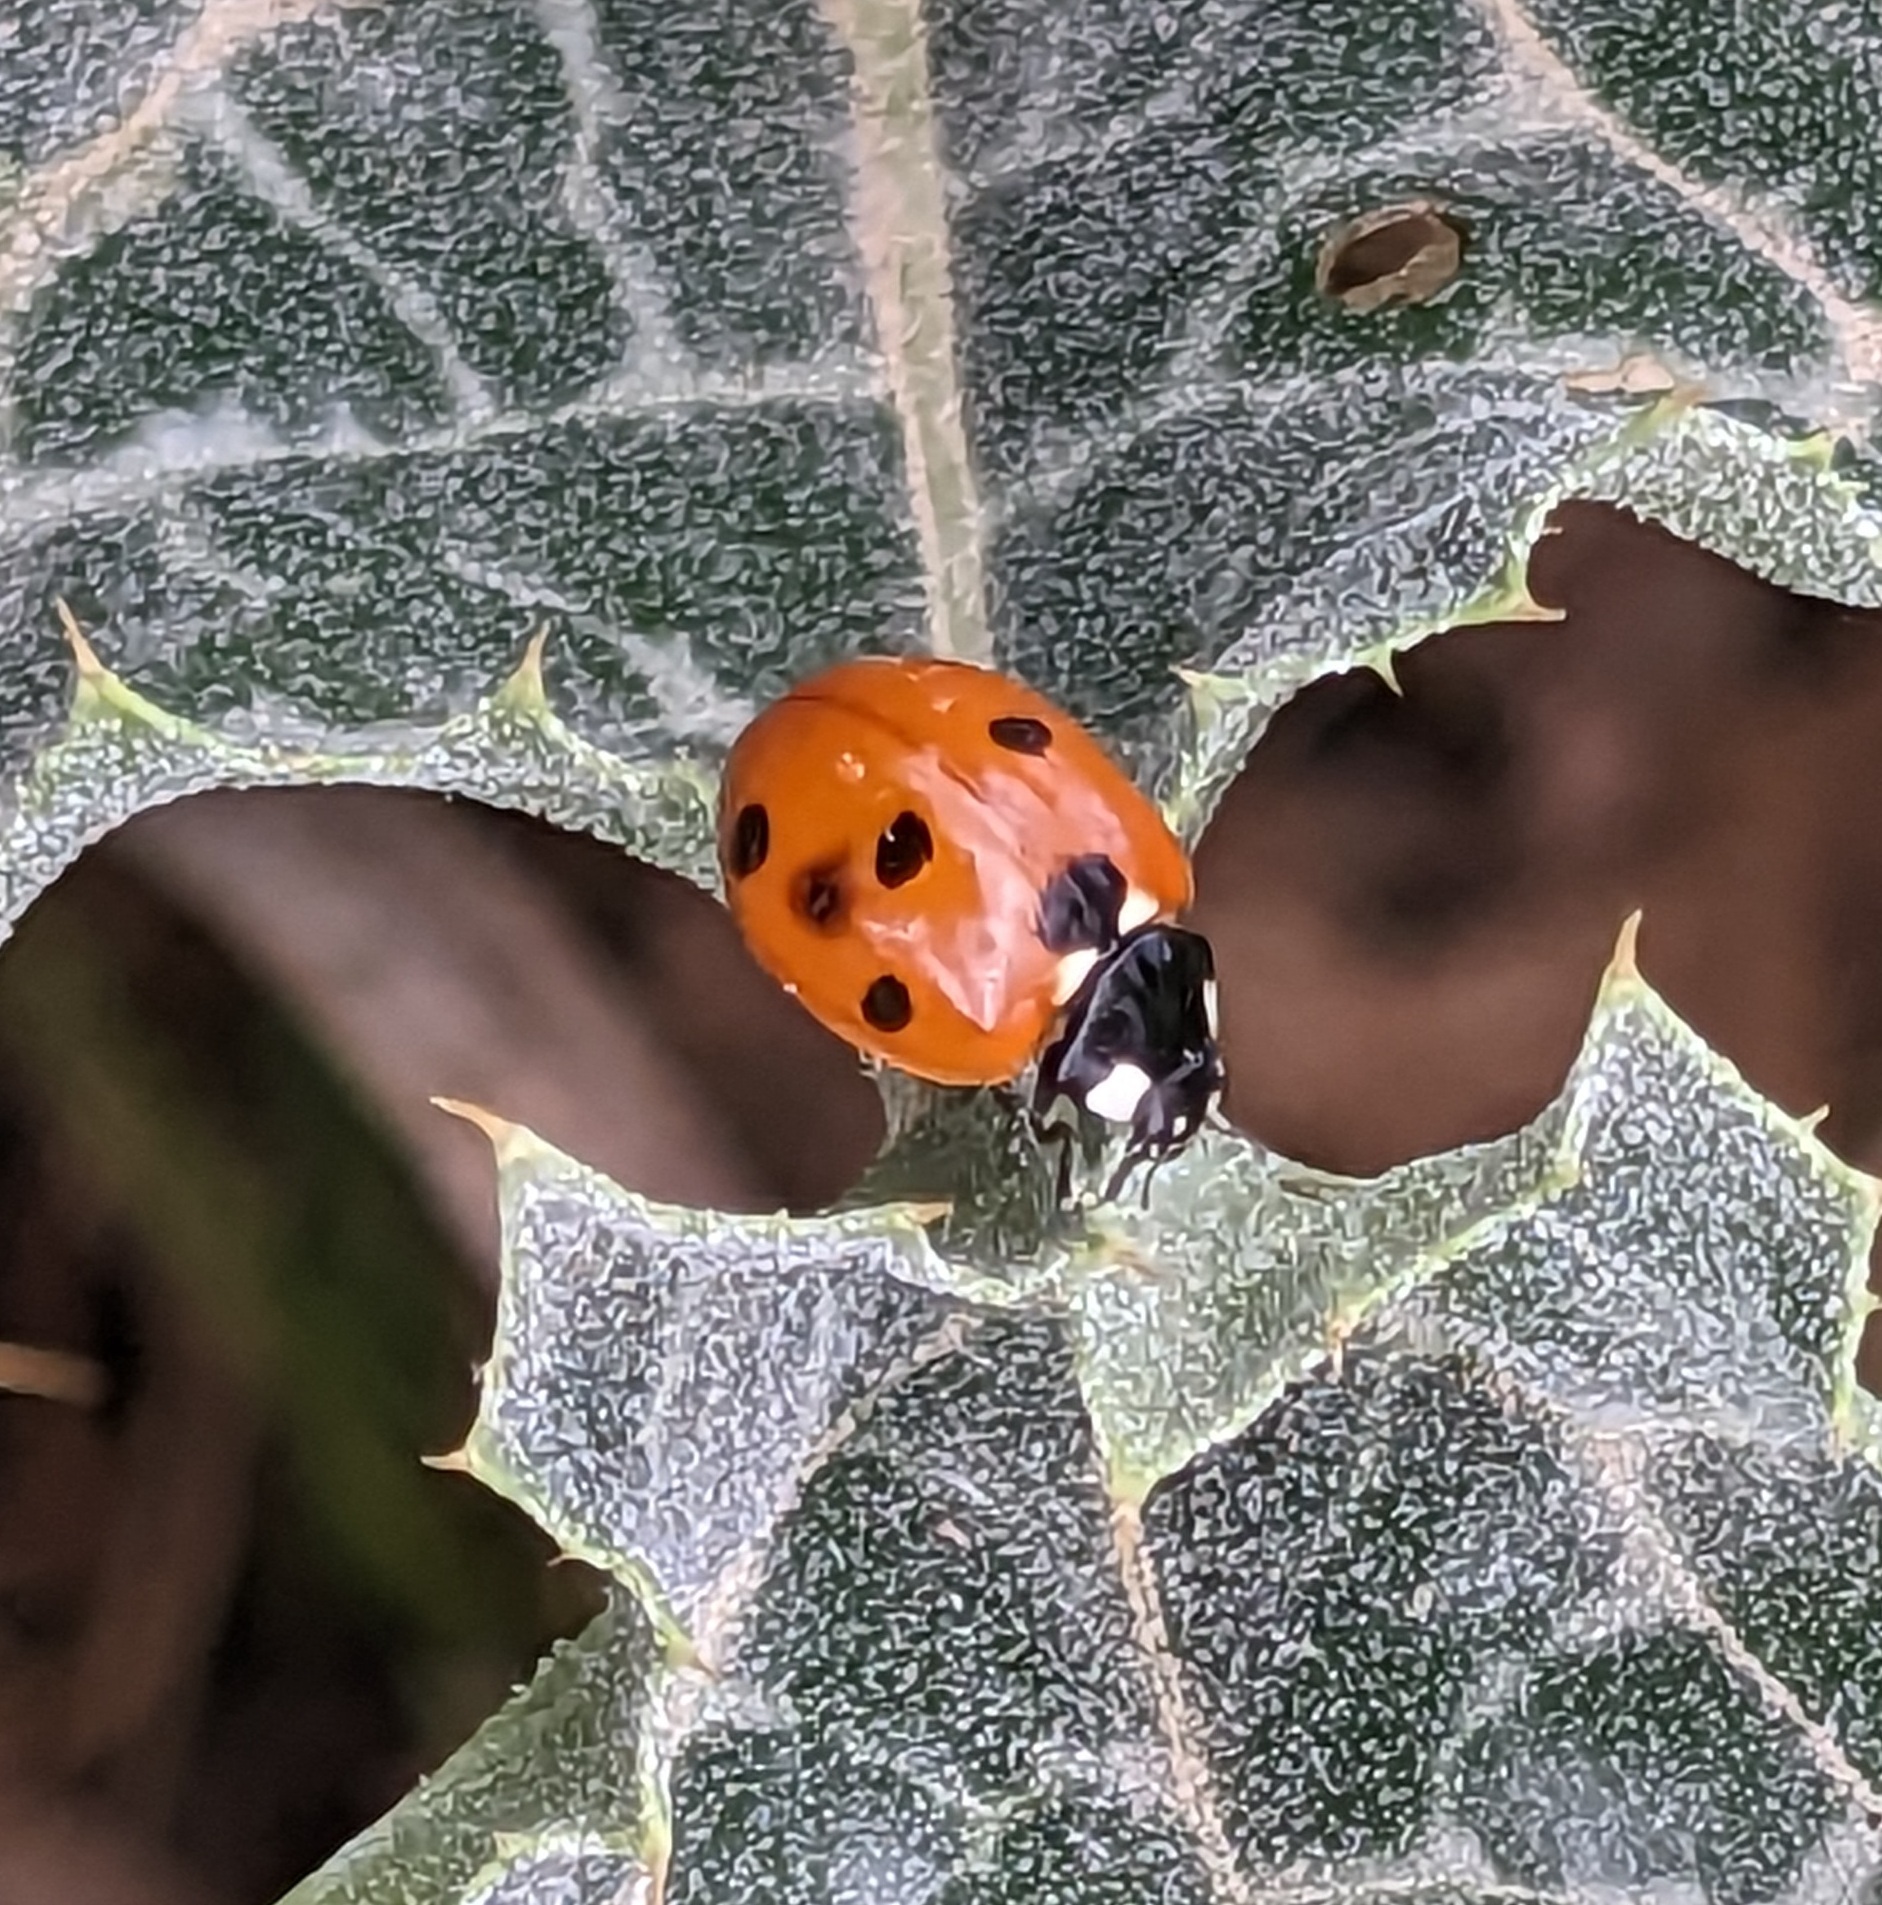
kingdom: Animalia
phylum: Arthropoda
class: Insecta
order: Coleoptera
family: Coccinellidae
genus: Coccinella
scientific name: Coccinella septempunctata
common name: Sevenspotted lady beetle
